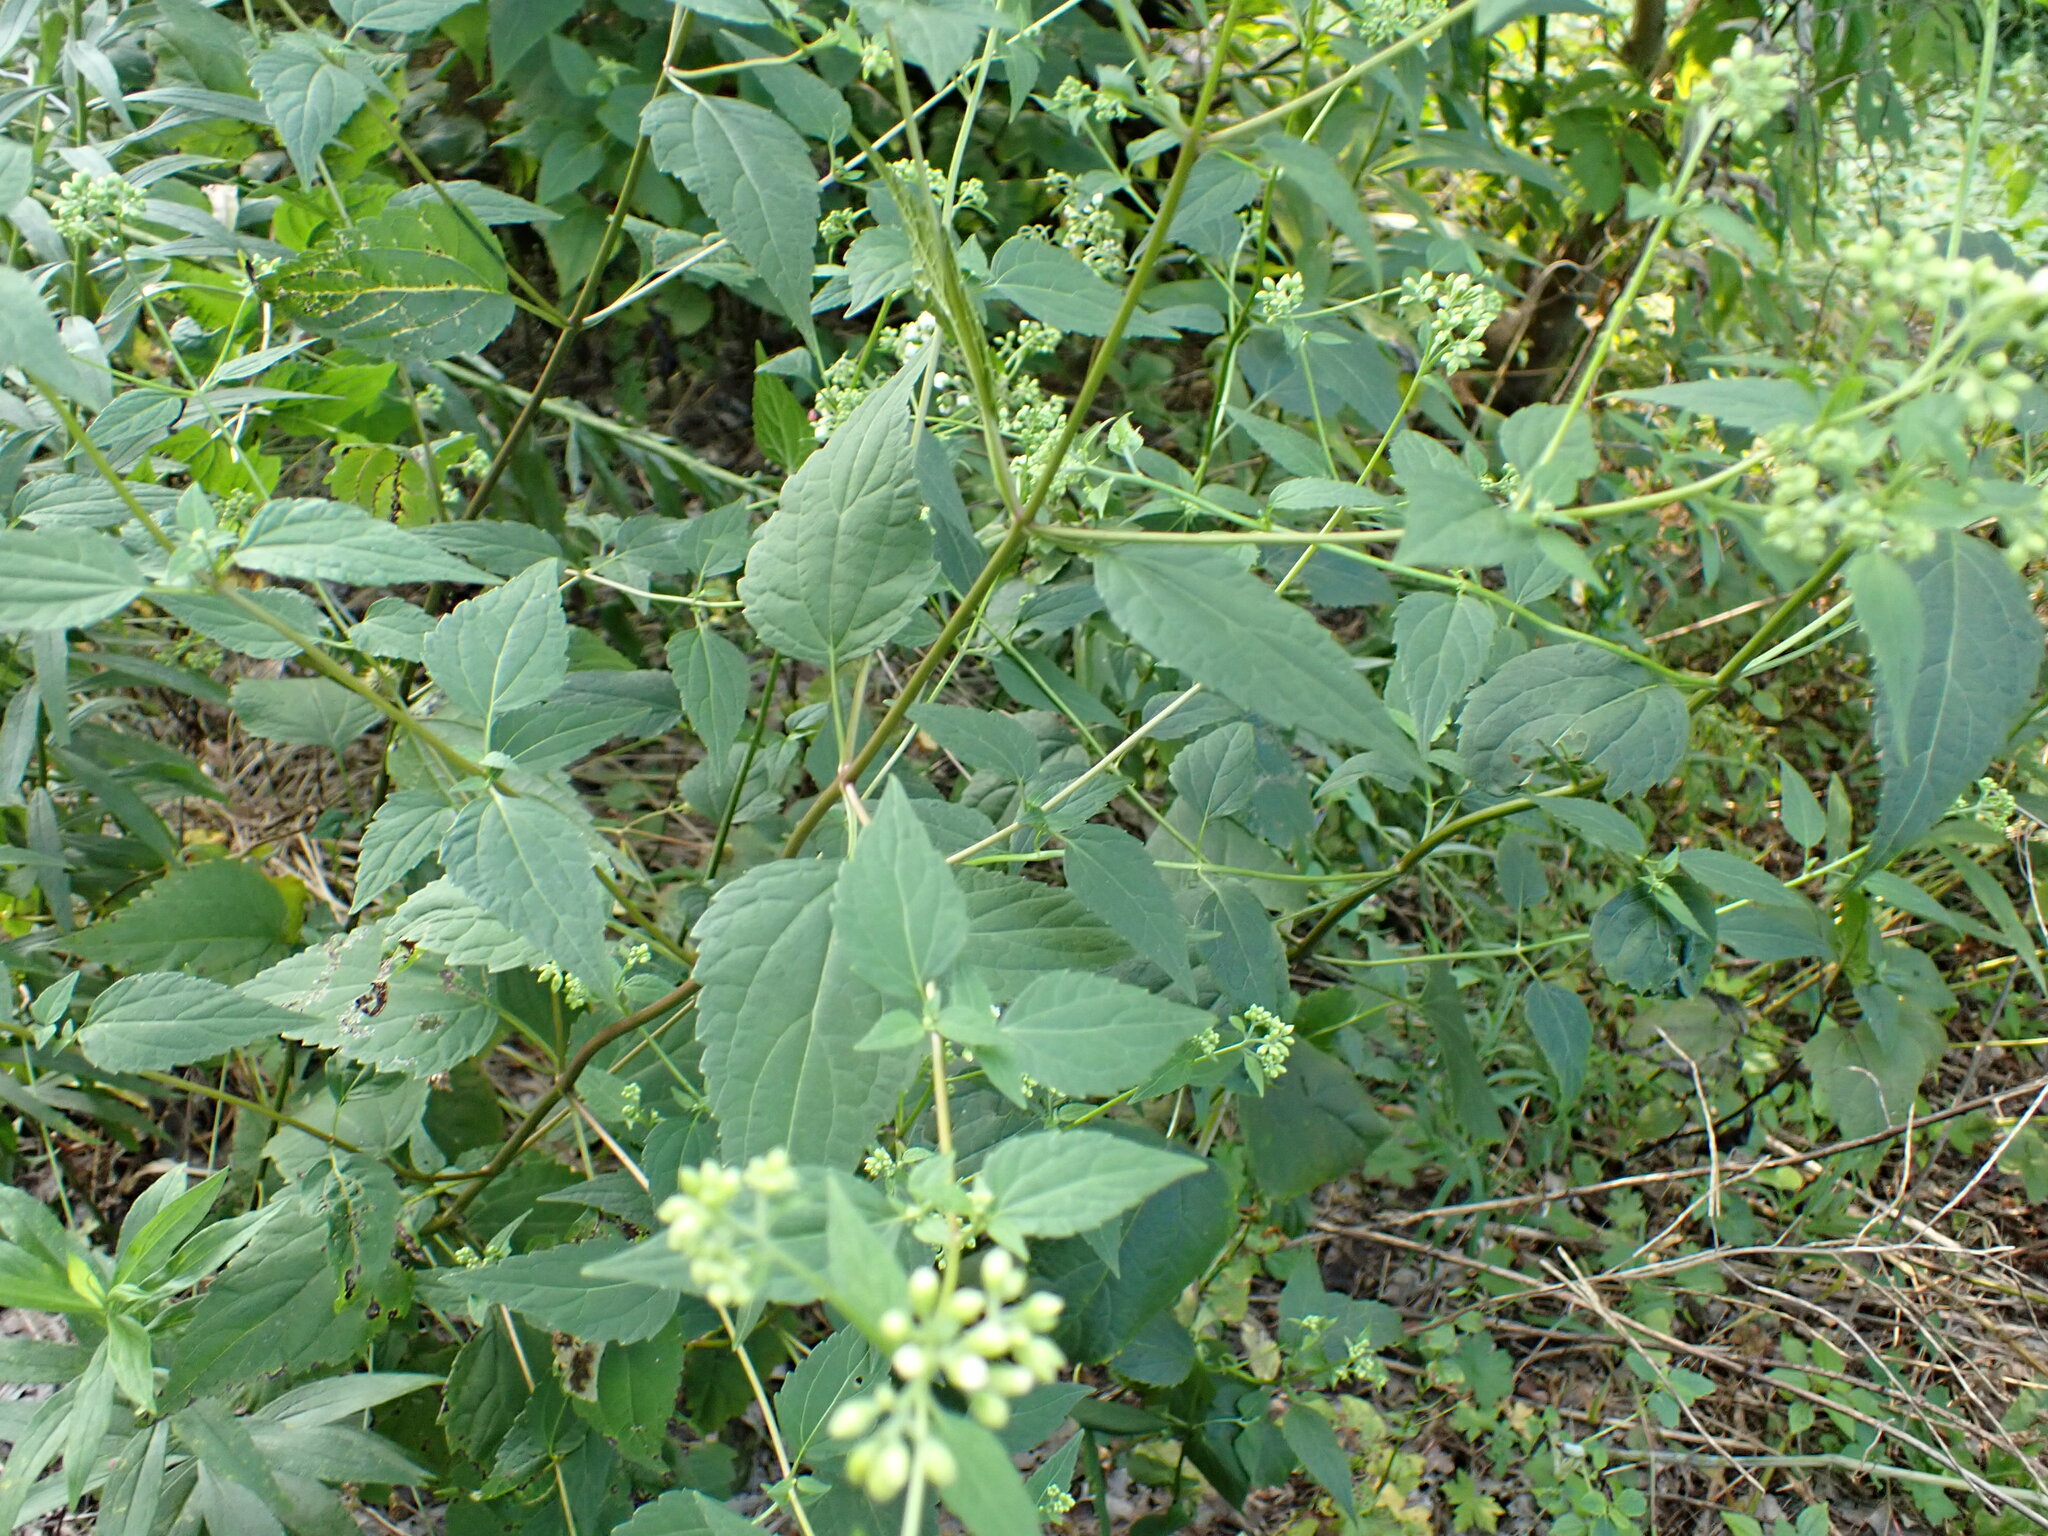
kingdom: Plantae
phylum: Tracheophyta
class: Magnoliopsida
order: Asterales
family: Asteraceae
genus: Ageratina
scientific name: Ageratina altissima
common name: White snakeroot
